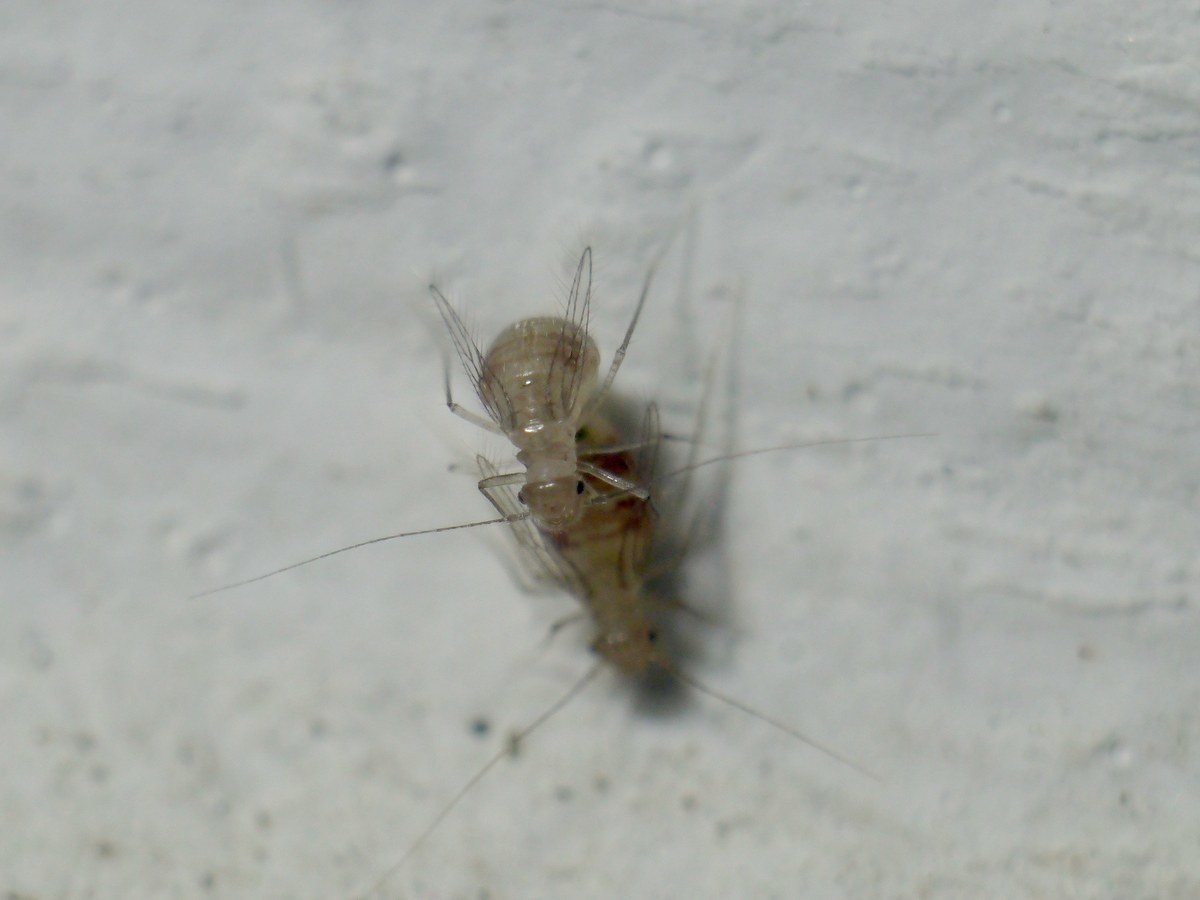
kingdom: Animalia
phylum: Arthropoda
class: Insecta
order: Psocodea
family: Psyllipsocidae
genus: Dorypteryx
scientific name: Dorypteryx domestica
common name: Cave barklouse
